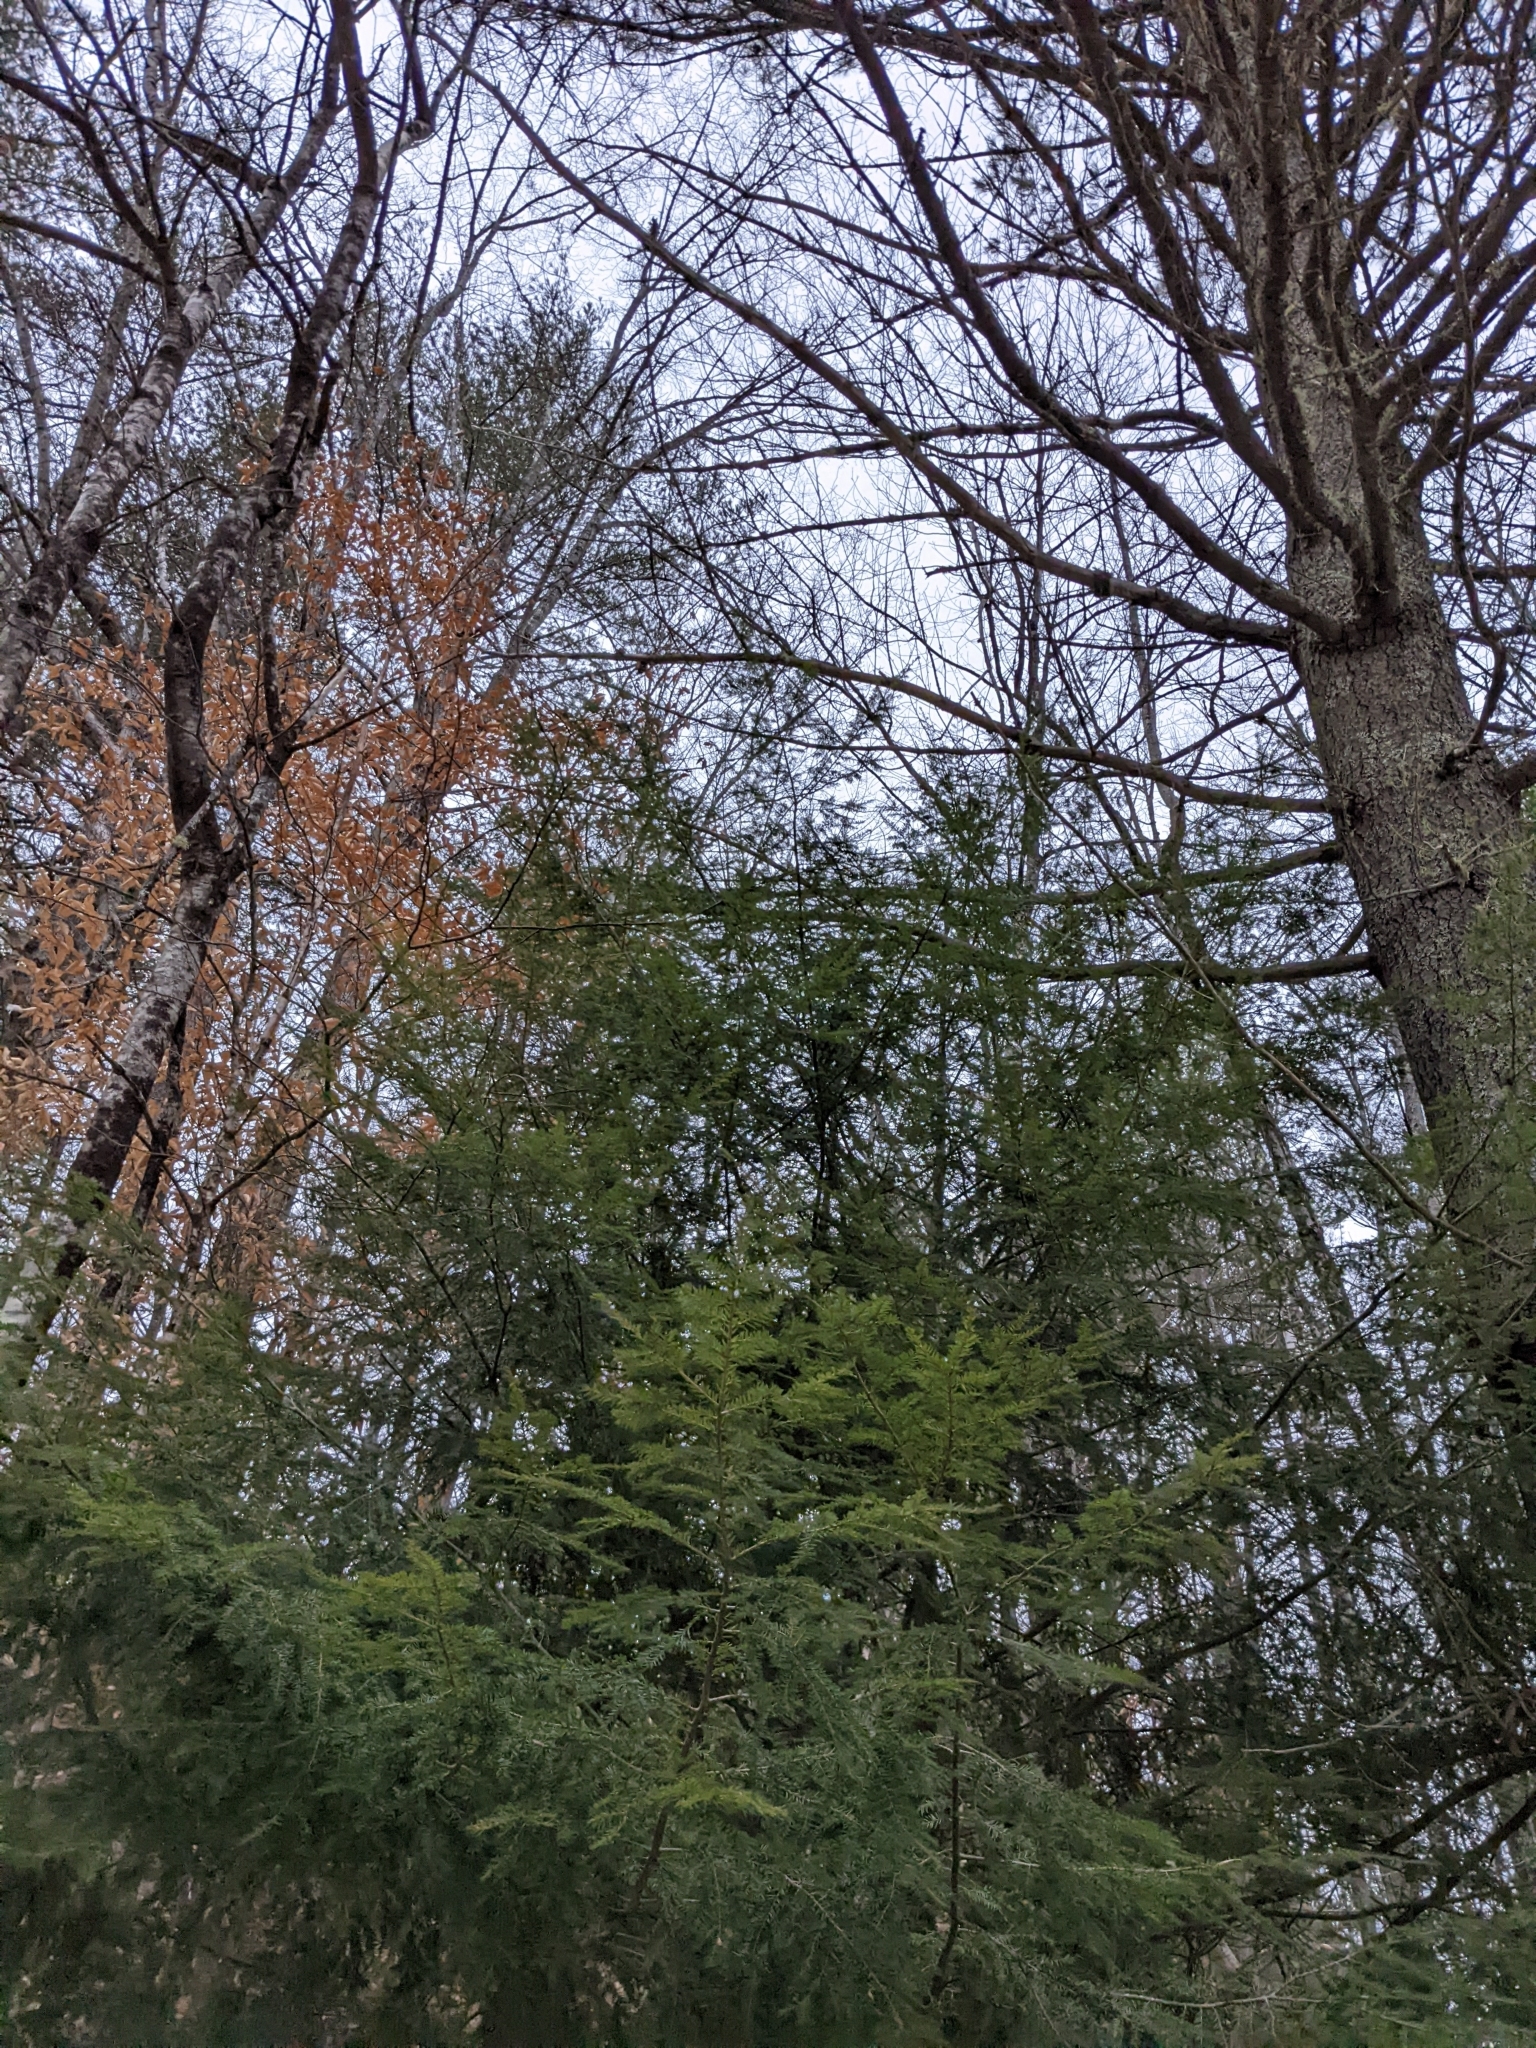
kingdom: Plantae
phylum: Tracheophyta
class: Pinopsida
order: Pinales
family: Pinaceae
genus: Tsuga
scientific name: Tsuga canadensis
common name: Eastern hemlock
